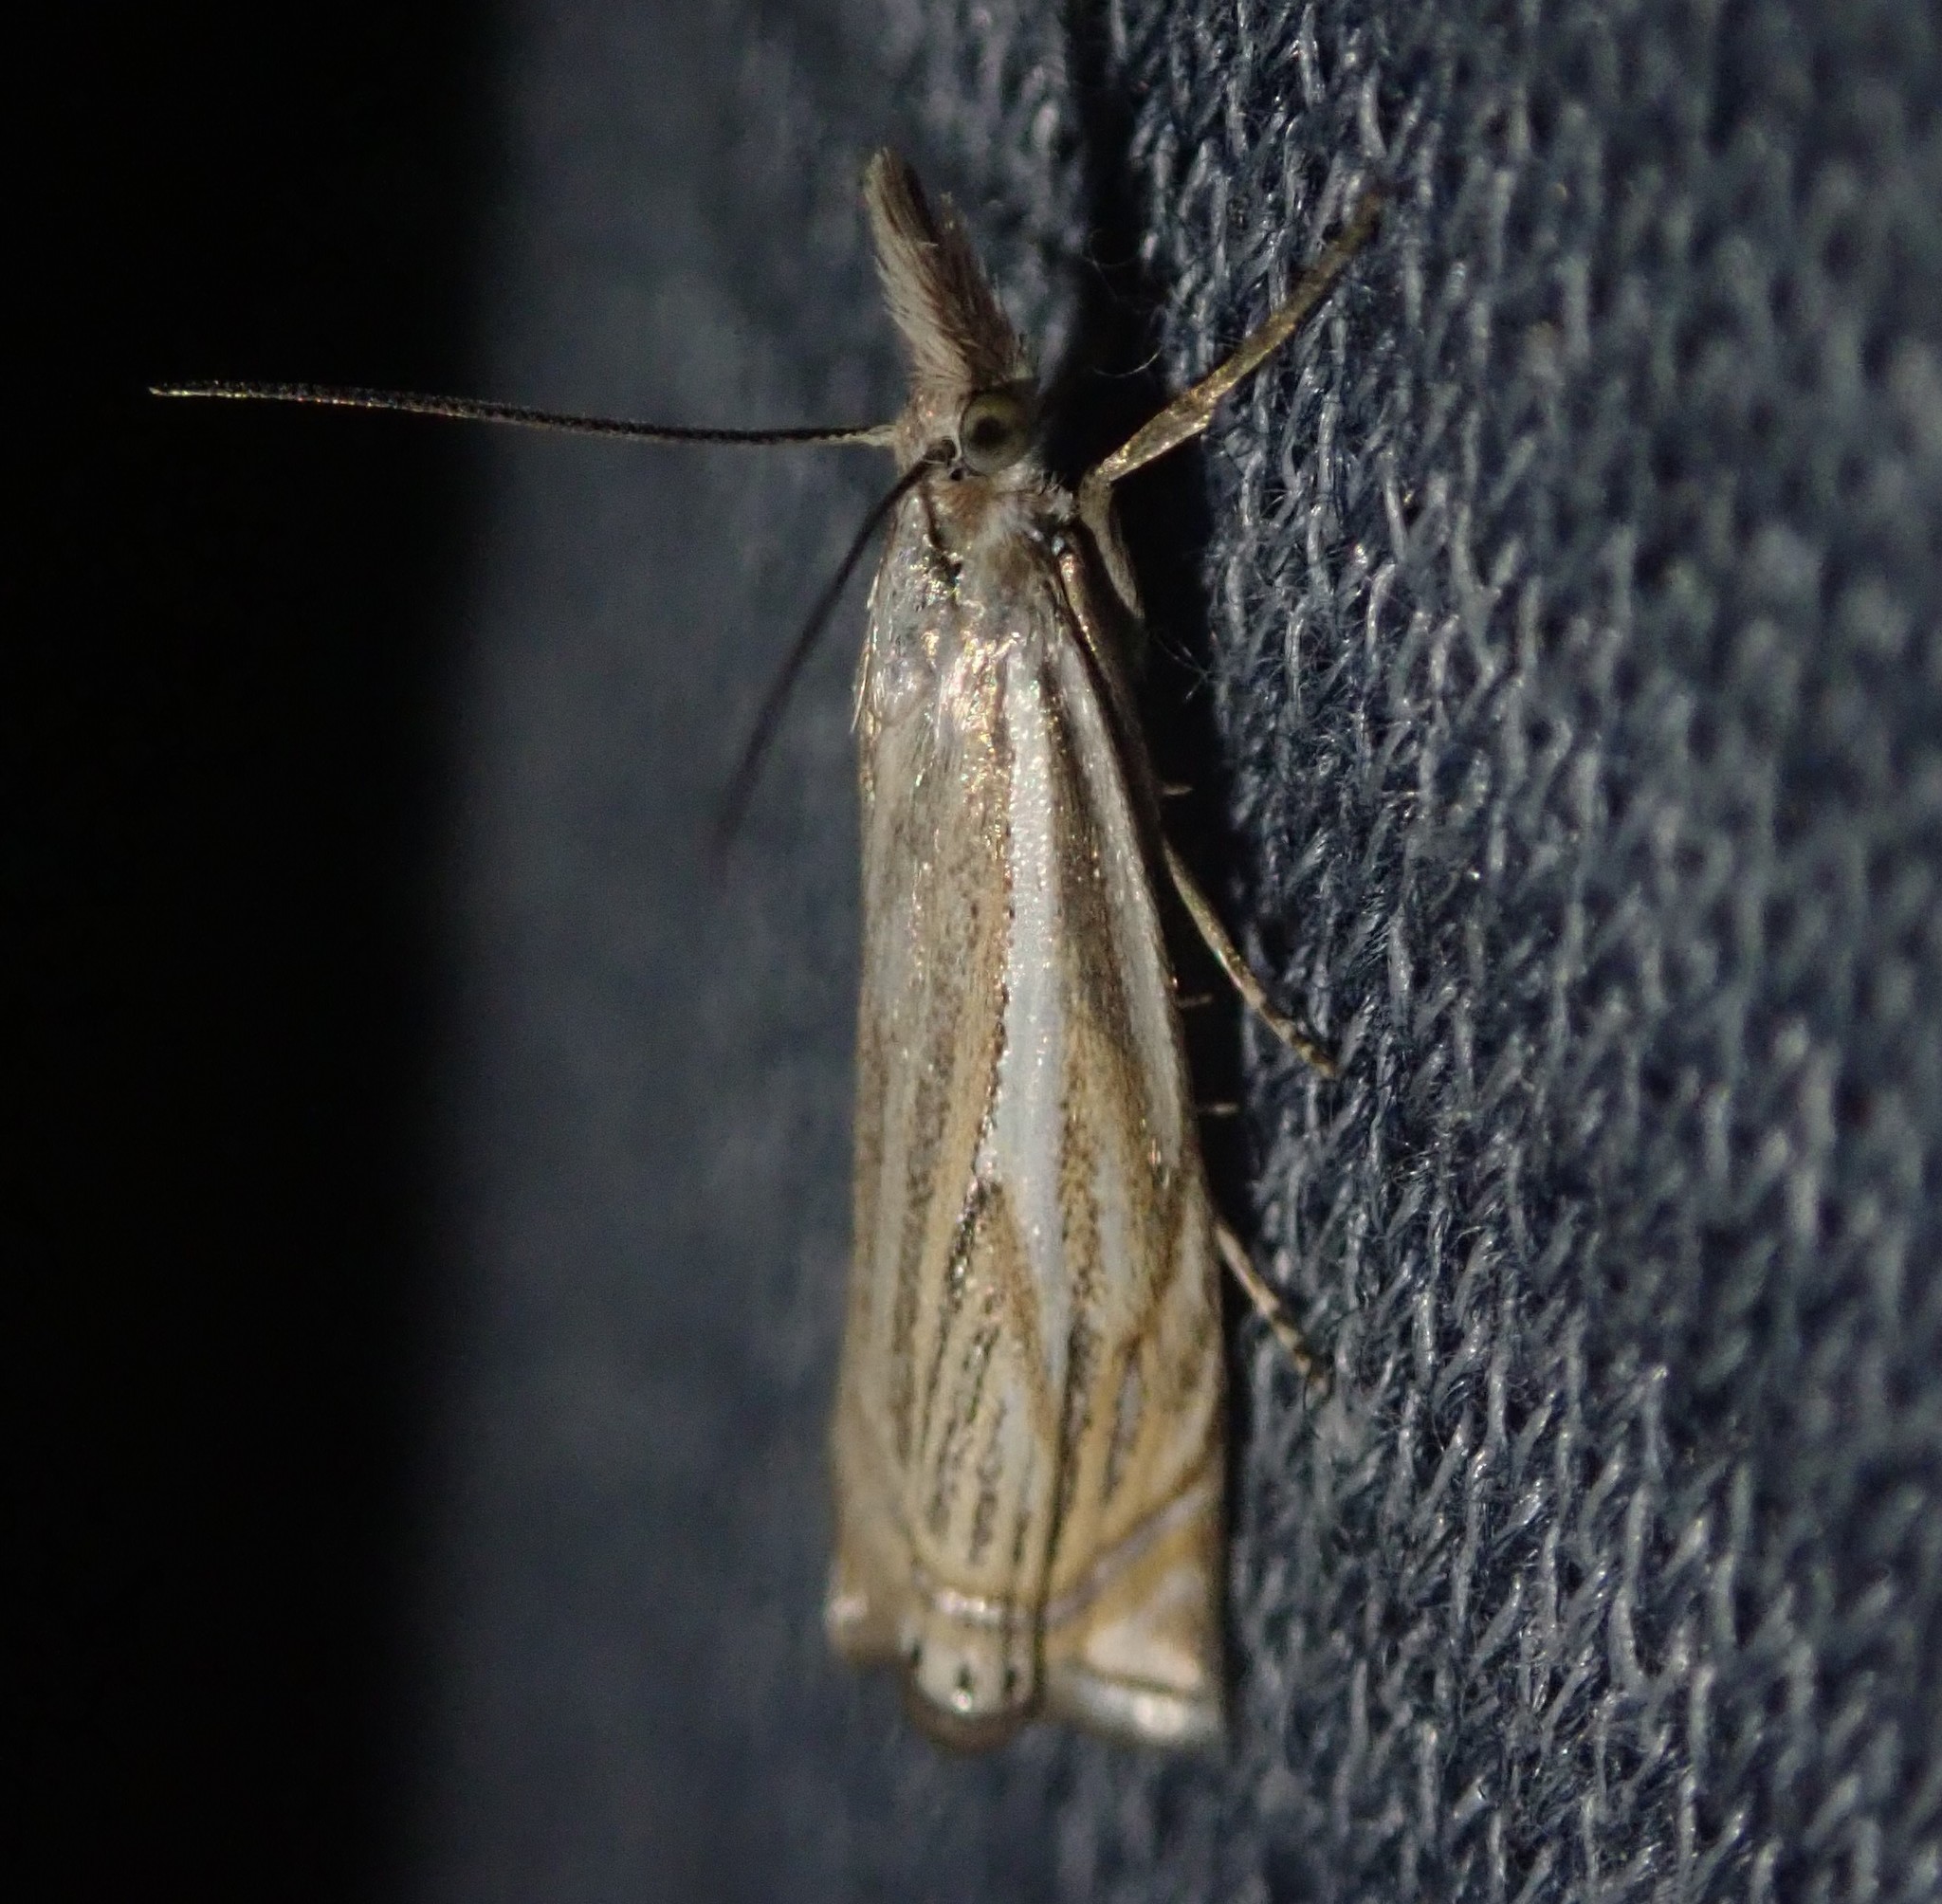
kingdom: Animalia
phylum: Arthropoda
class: Insecta
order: Lepidoptera
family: Crambidae
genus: Crambus
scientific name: Crambus nemorella
